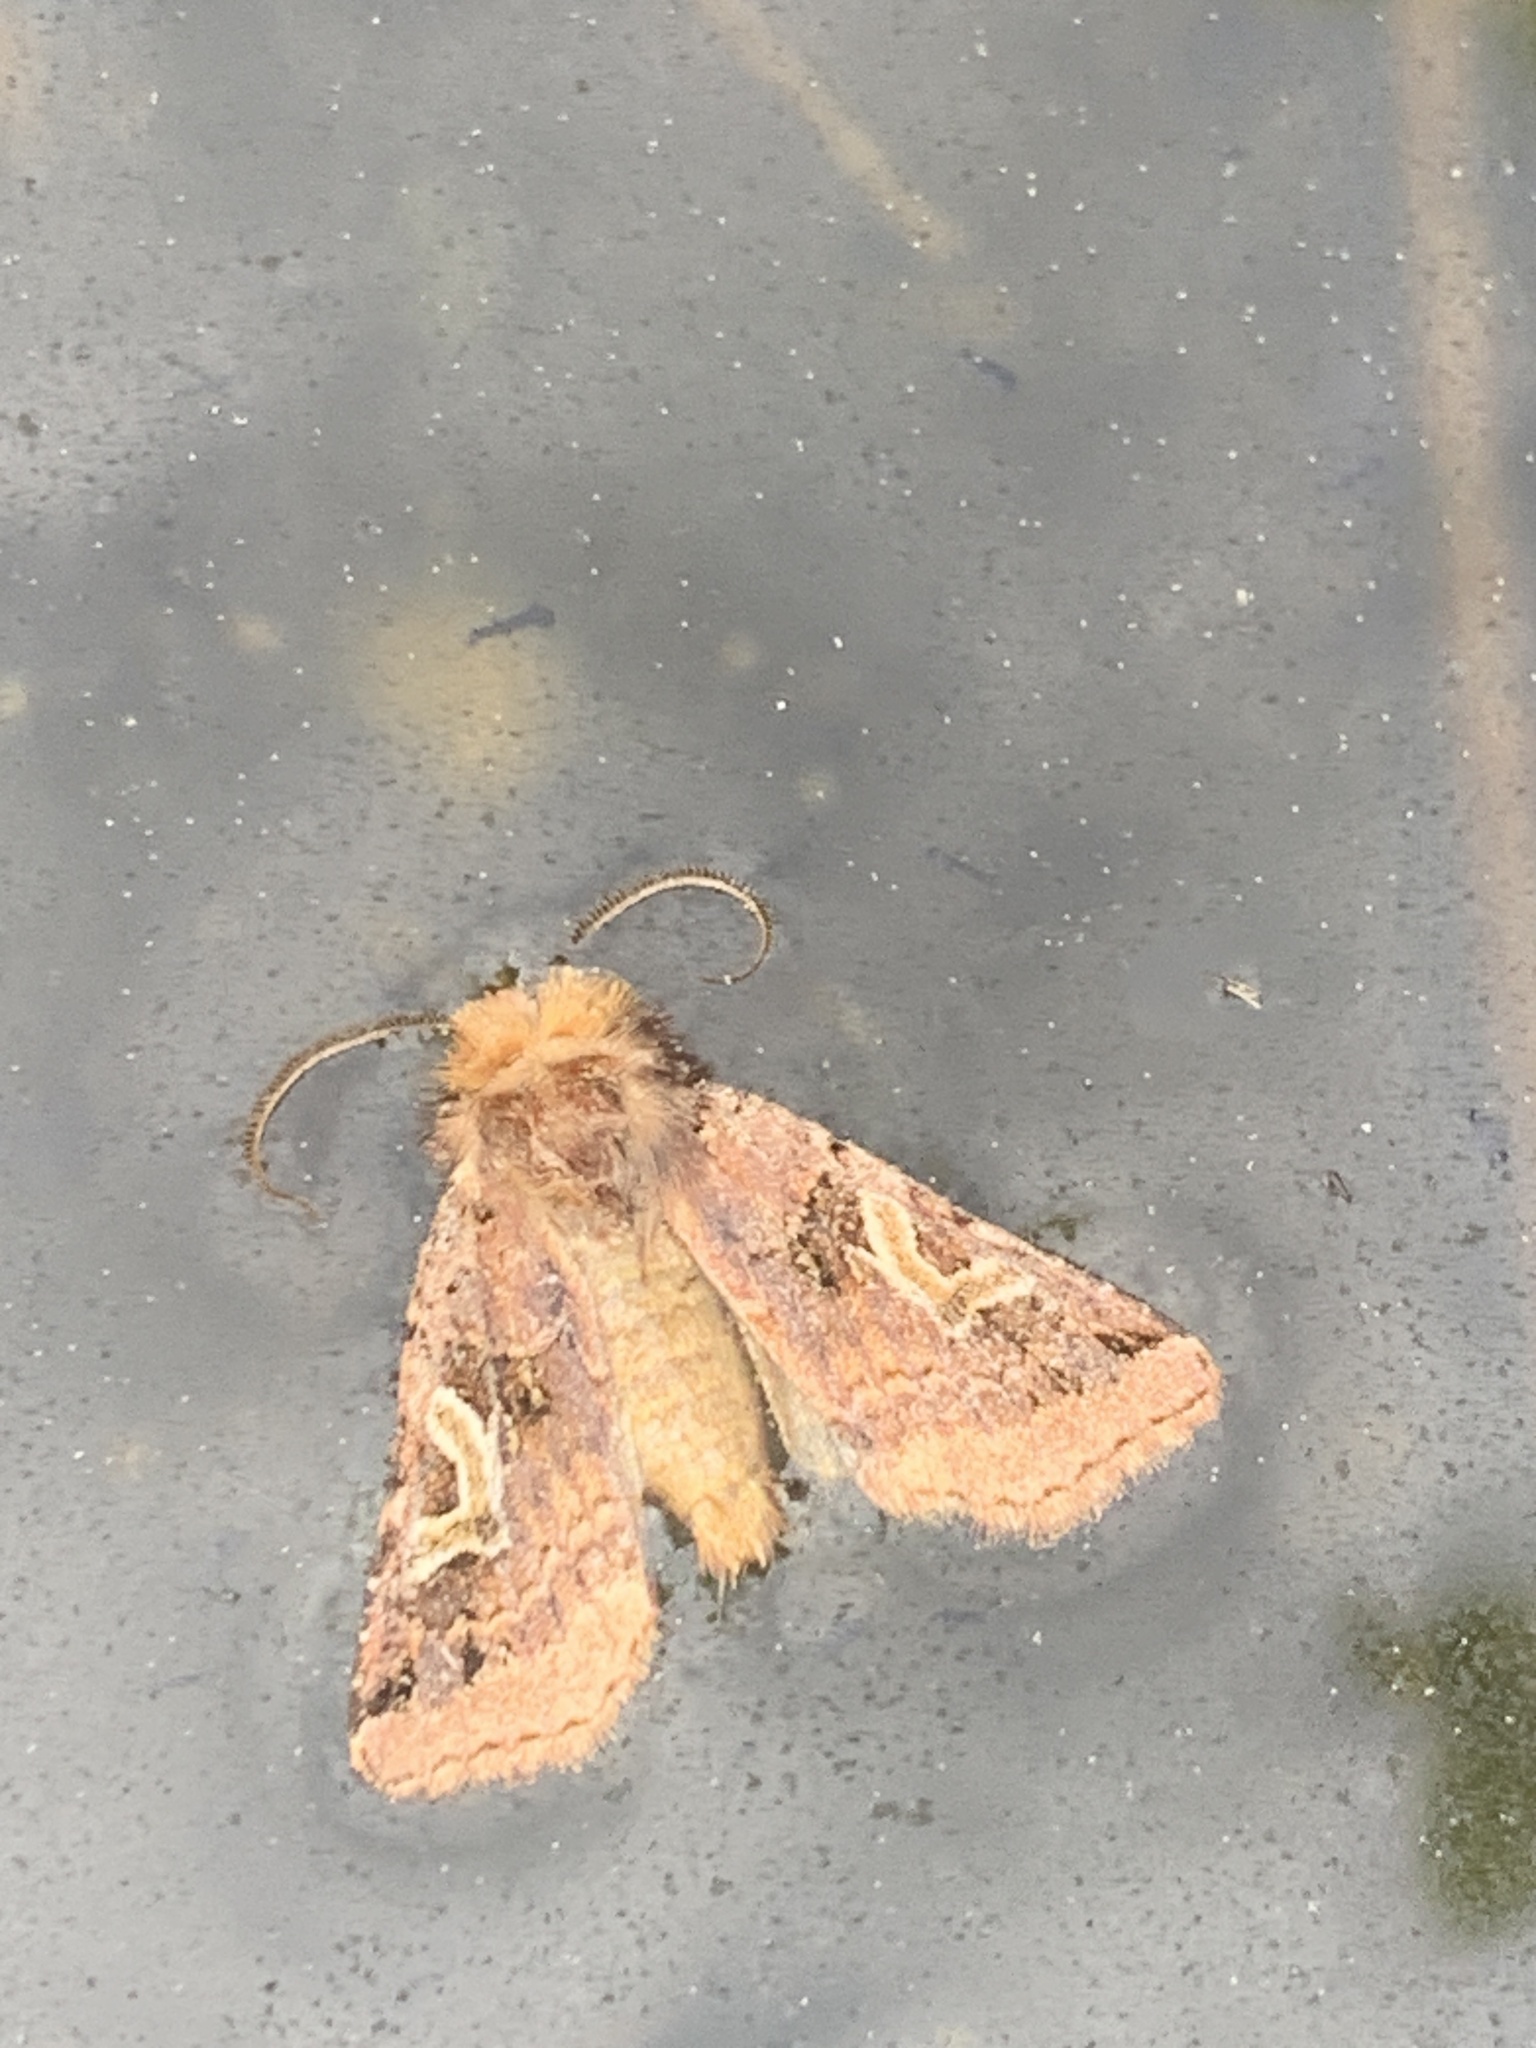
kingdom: Animalia
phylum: Arthropoda
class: Insecta
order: Lepidoptera
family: Noctuidae
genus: Cerastis
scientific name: Cerastis enigmatica
